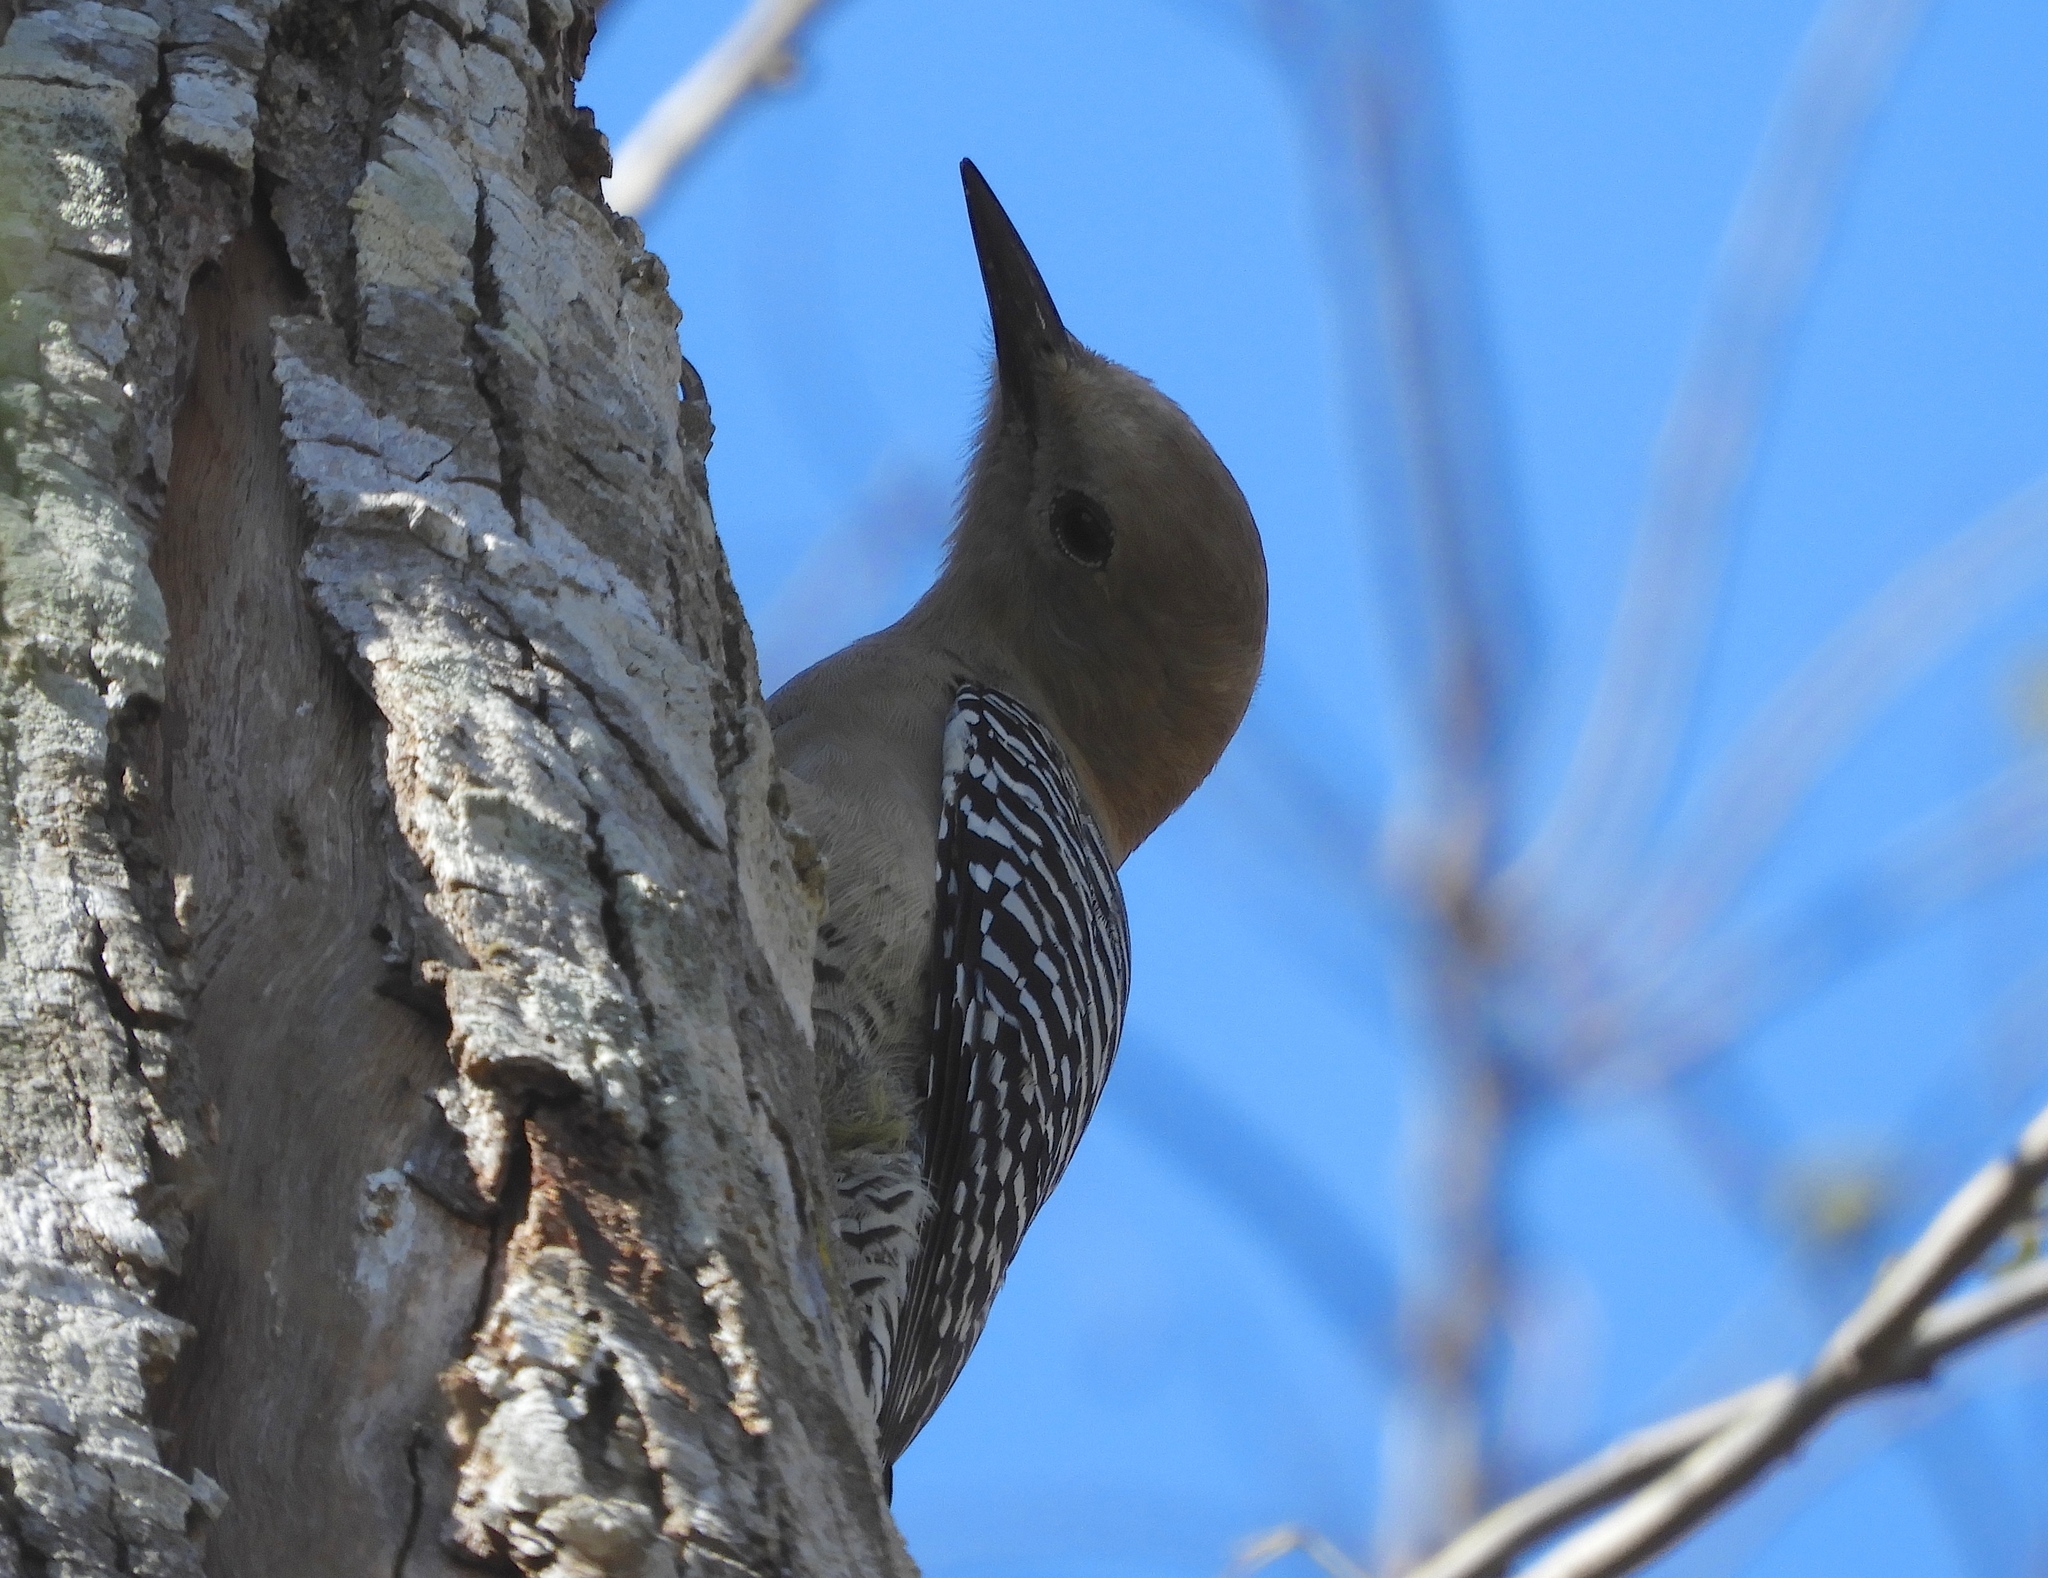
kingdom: Animalia
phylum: Chordata
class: Aves
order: Piciformes
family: Picidae
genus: Melanerpes
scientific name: Melanerpes uropygialis
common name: Gila woodpecker
